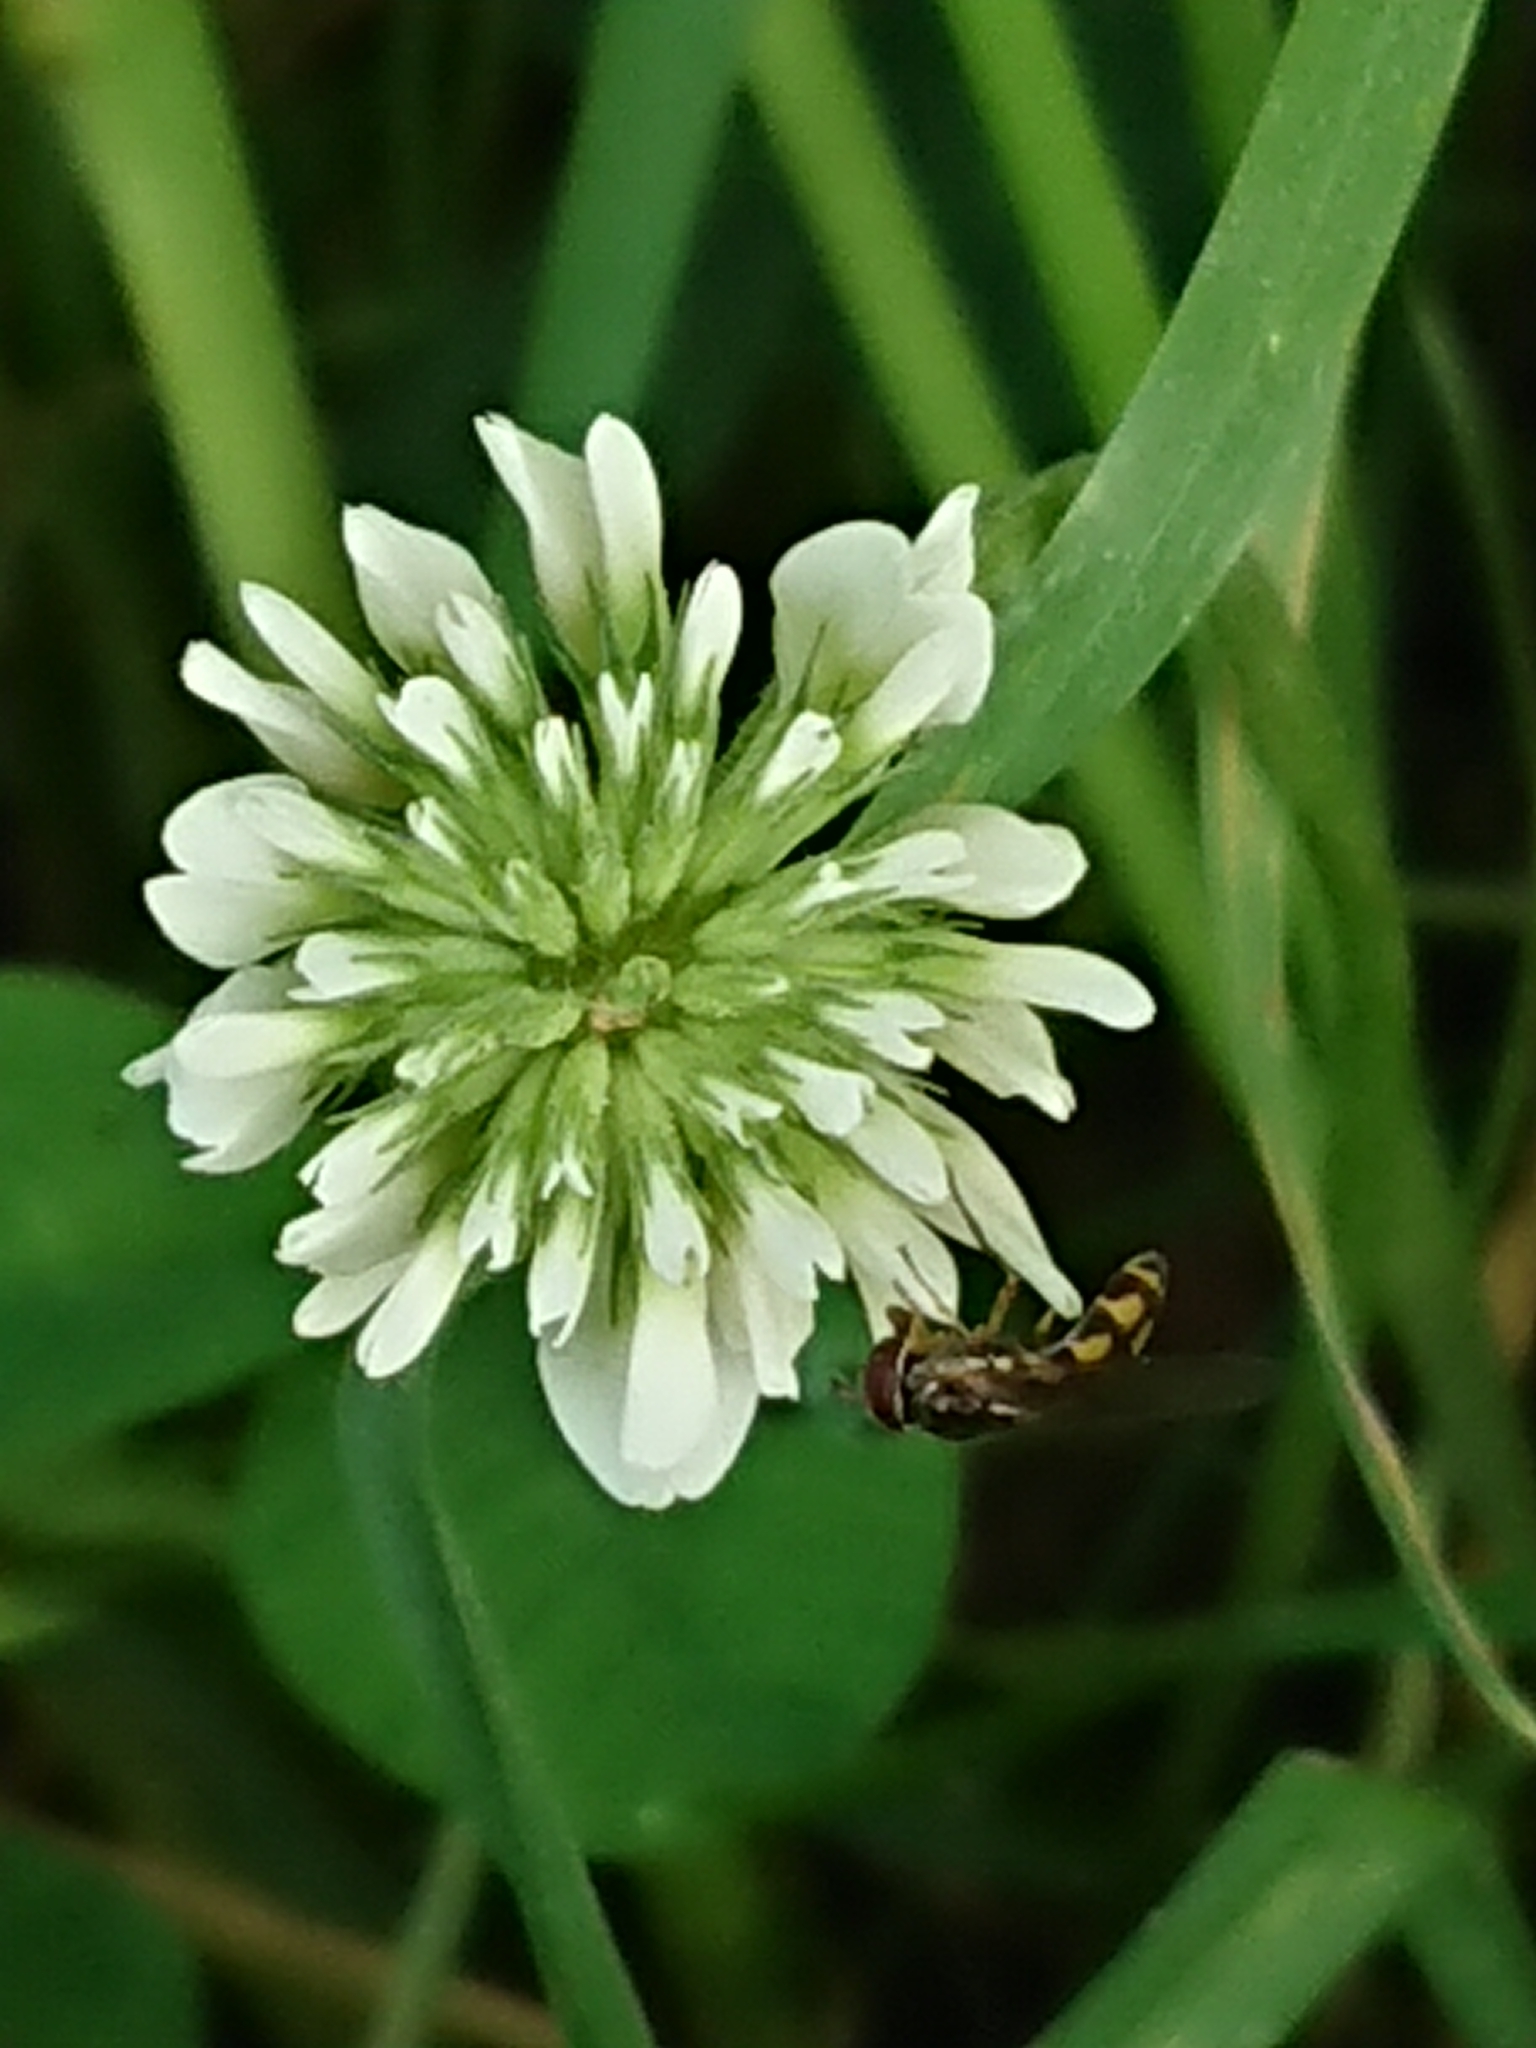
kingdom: Animalia
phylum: Arthropoda
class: Insecta
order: Diptera
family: Syrphidae
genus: Melanostoma
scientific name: Melanostoma fasciatum
